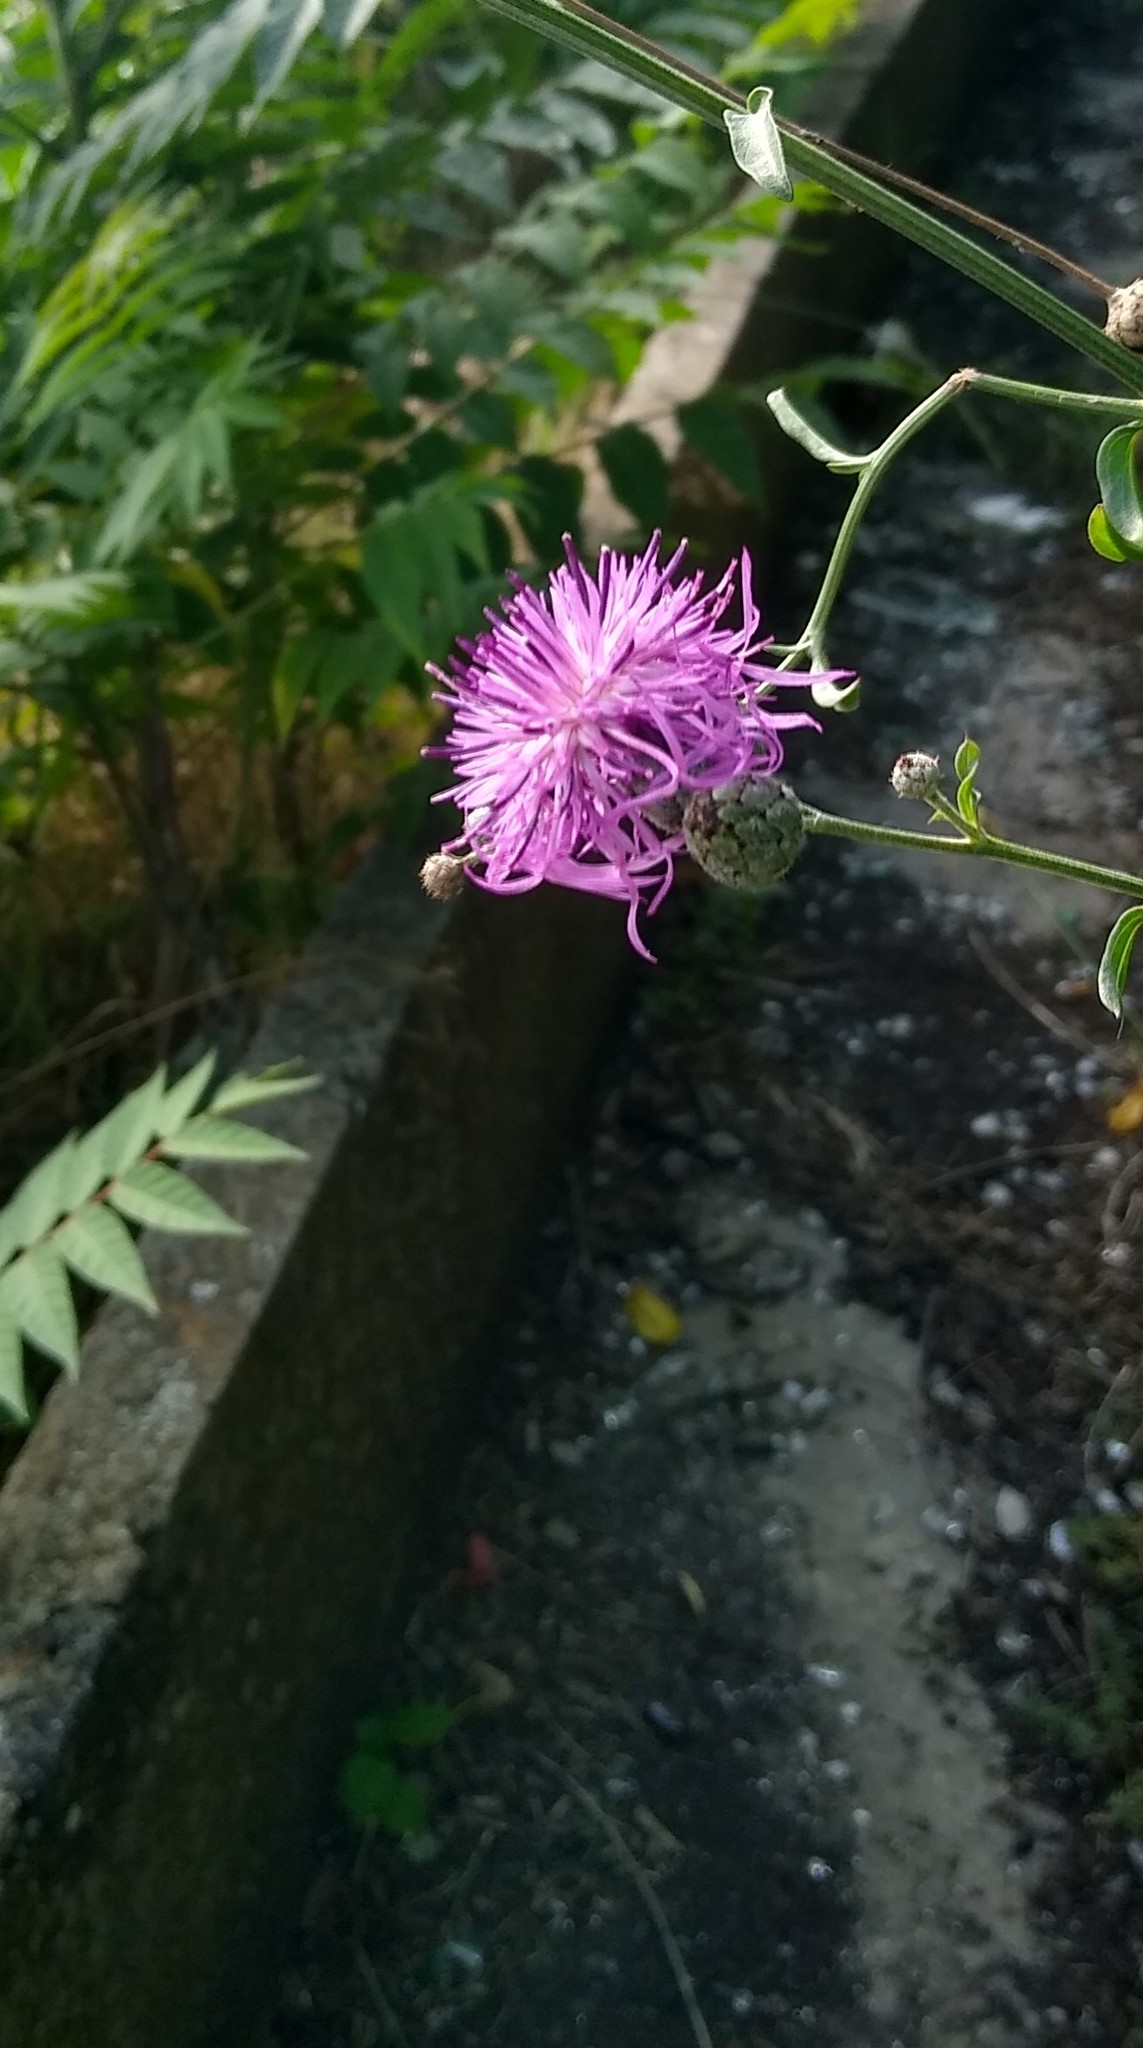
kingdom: Plantae
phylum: Tracheophyta
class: Magnoliopsida
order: Asterales
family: Asteraceae
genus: Centaurea
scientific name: Centaurea scabiosa
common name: Greater knapweed
